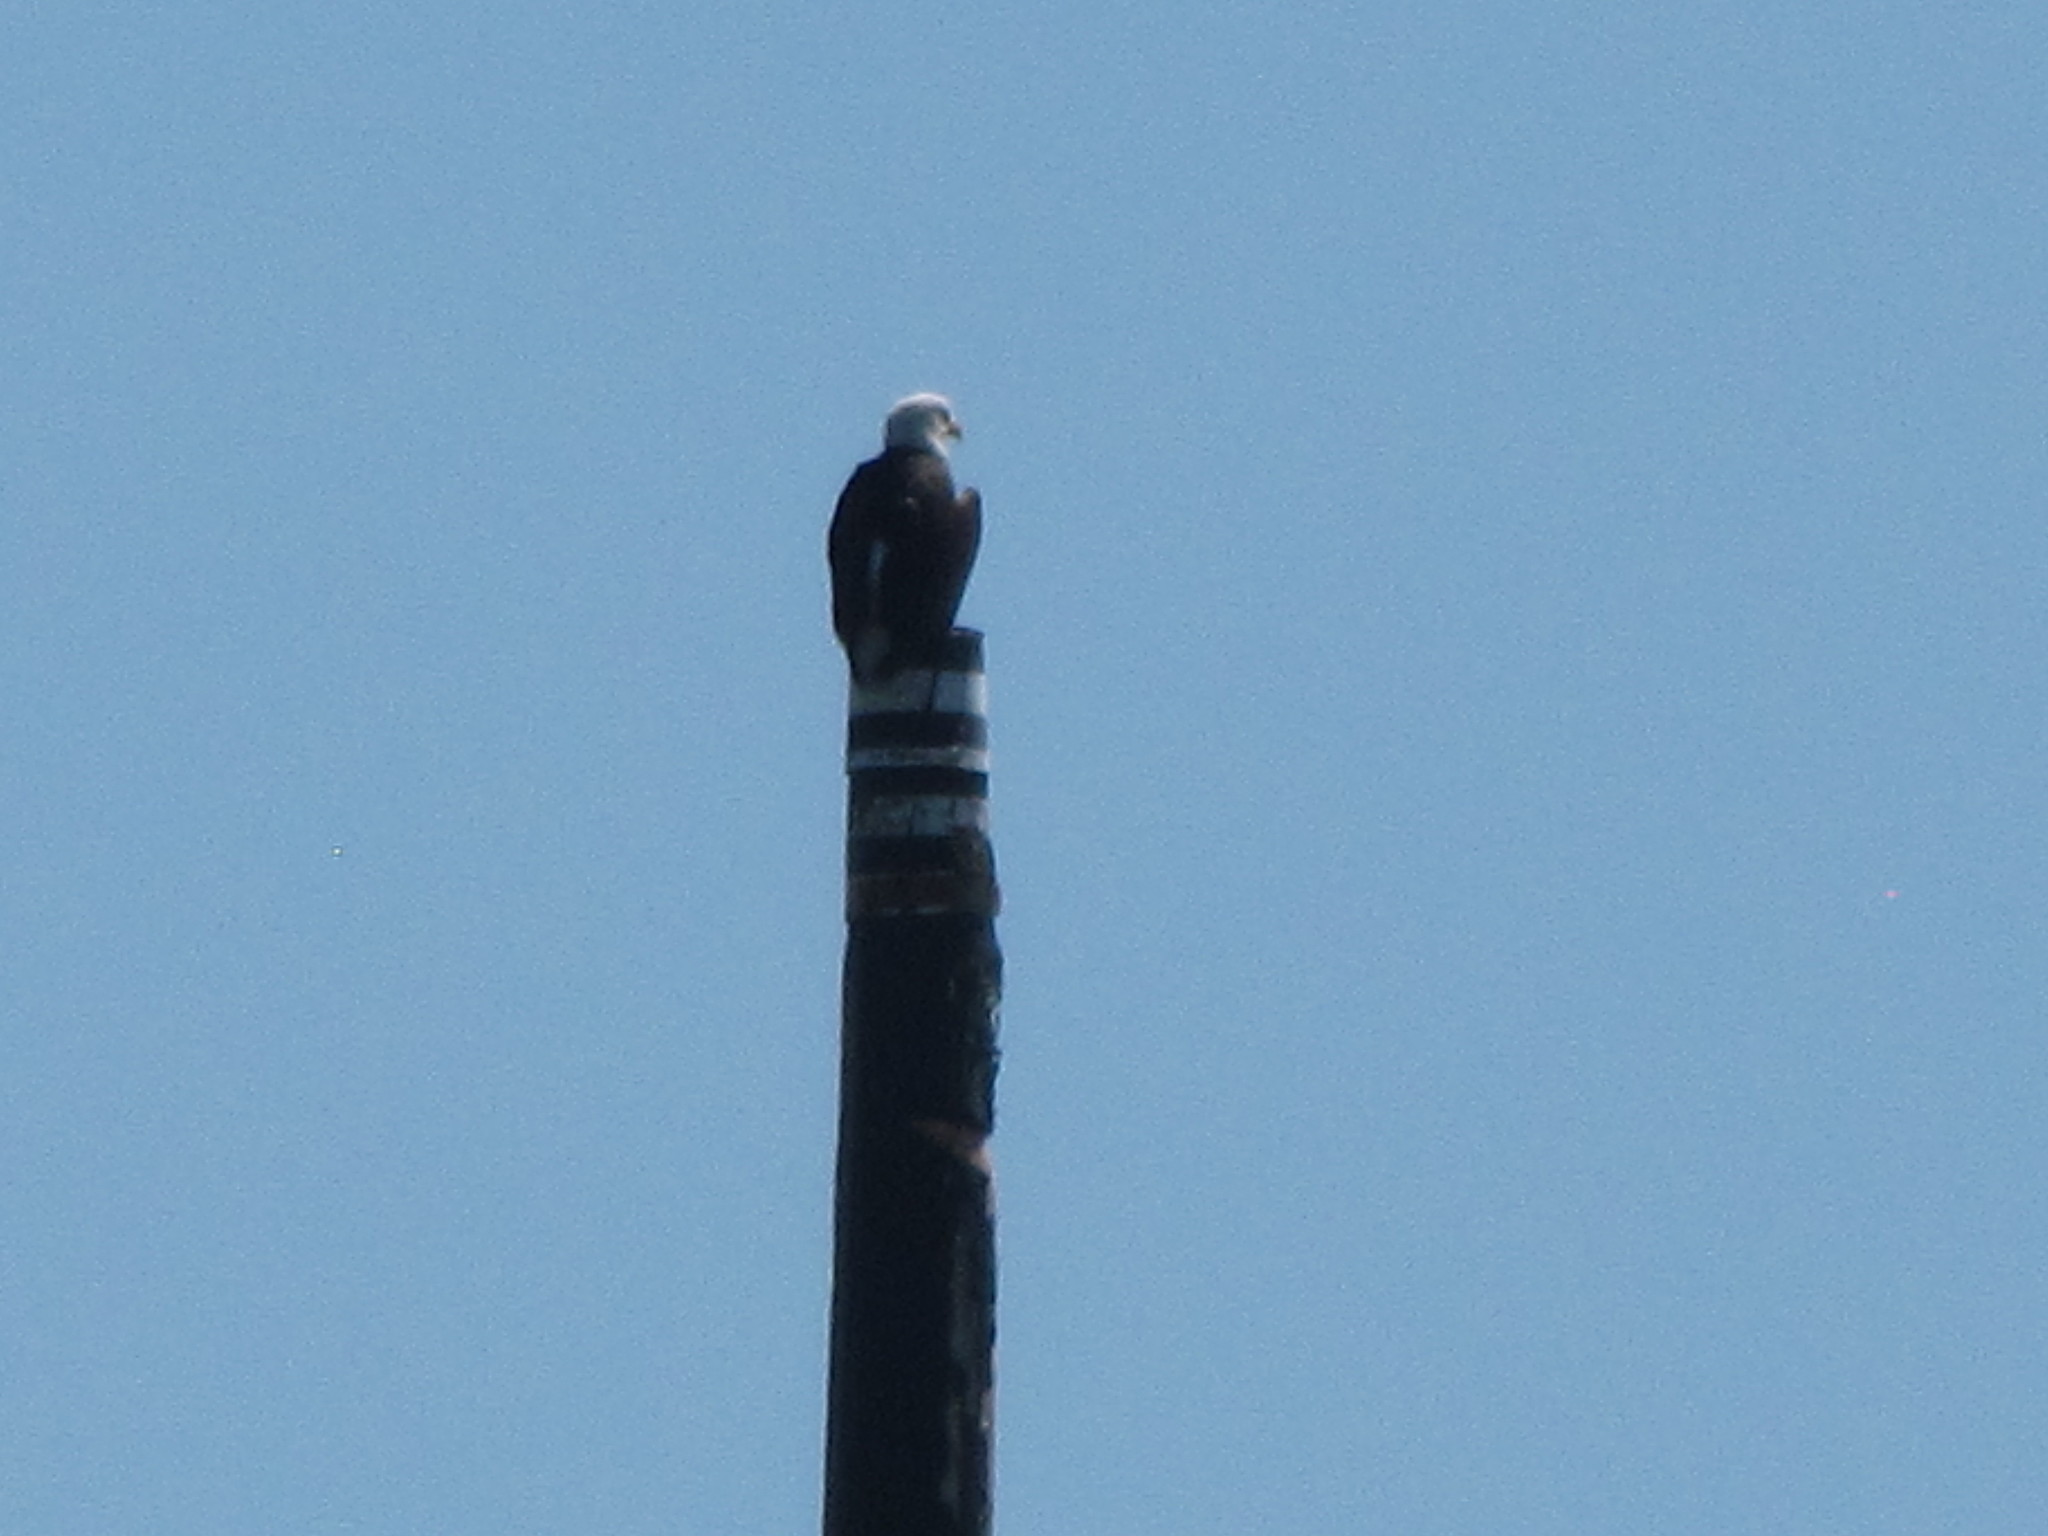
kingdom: Animalia
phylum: Chordata
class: Aves
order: Accipitriformes
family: Accipitridae
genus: Haliaeetus
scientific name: Haliaeetus leucocephalus
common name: Bald eagle
